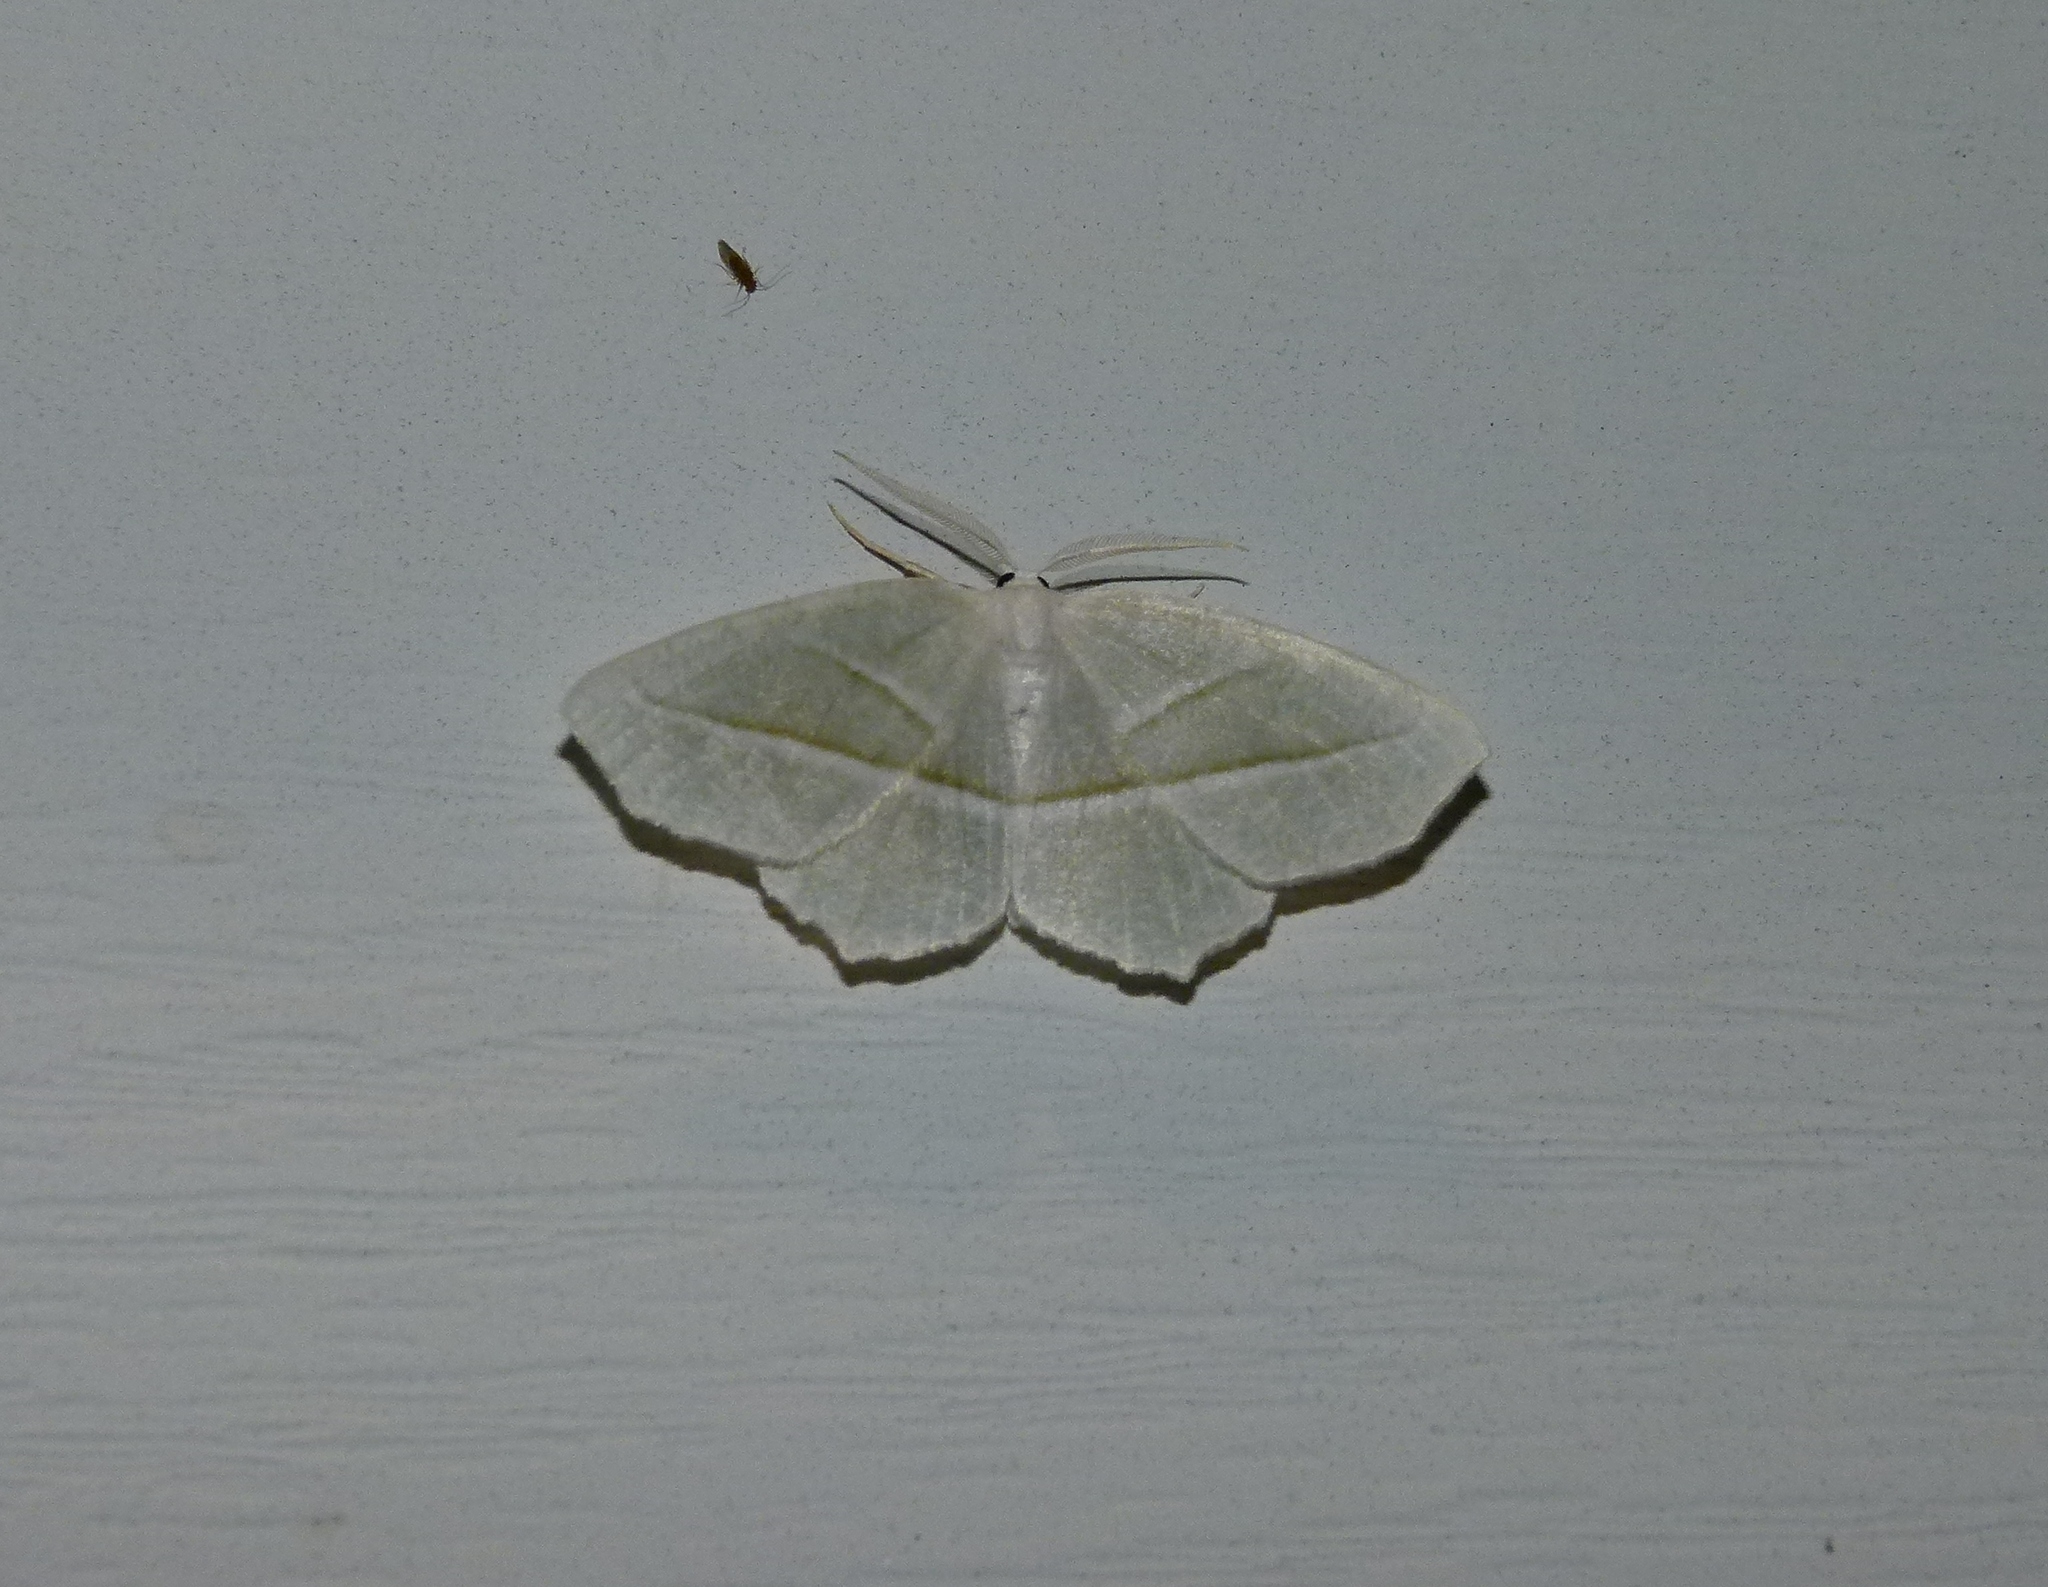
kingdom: Animalia
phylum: Arthropoda
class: Insecta
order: Lepidoptera
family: Geometridae
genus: Campaea
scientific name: Campaea perlata
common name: Fringed looper
